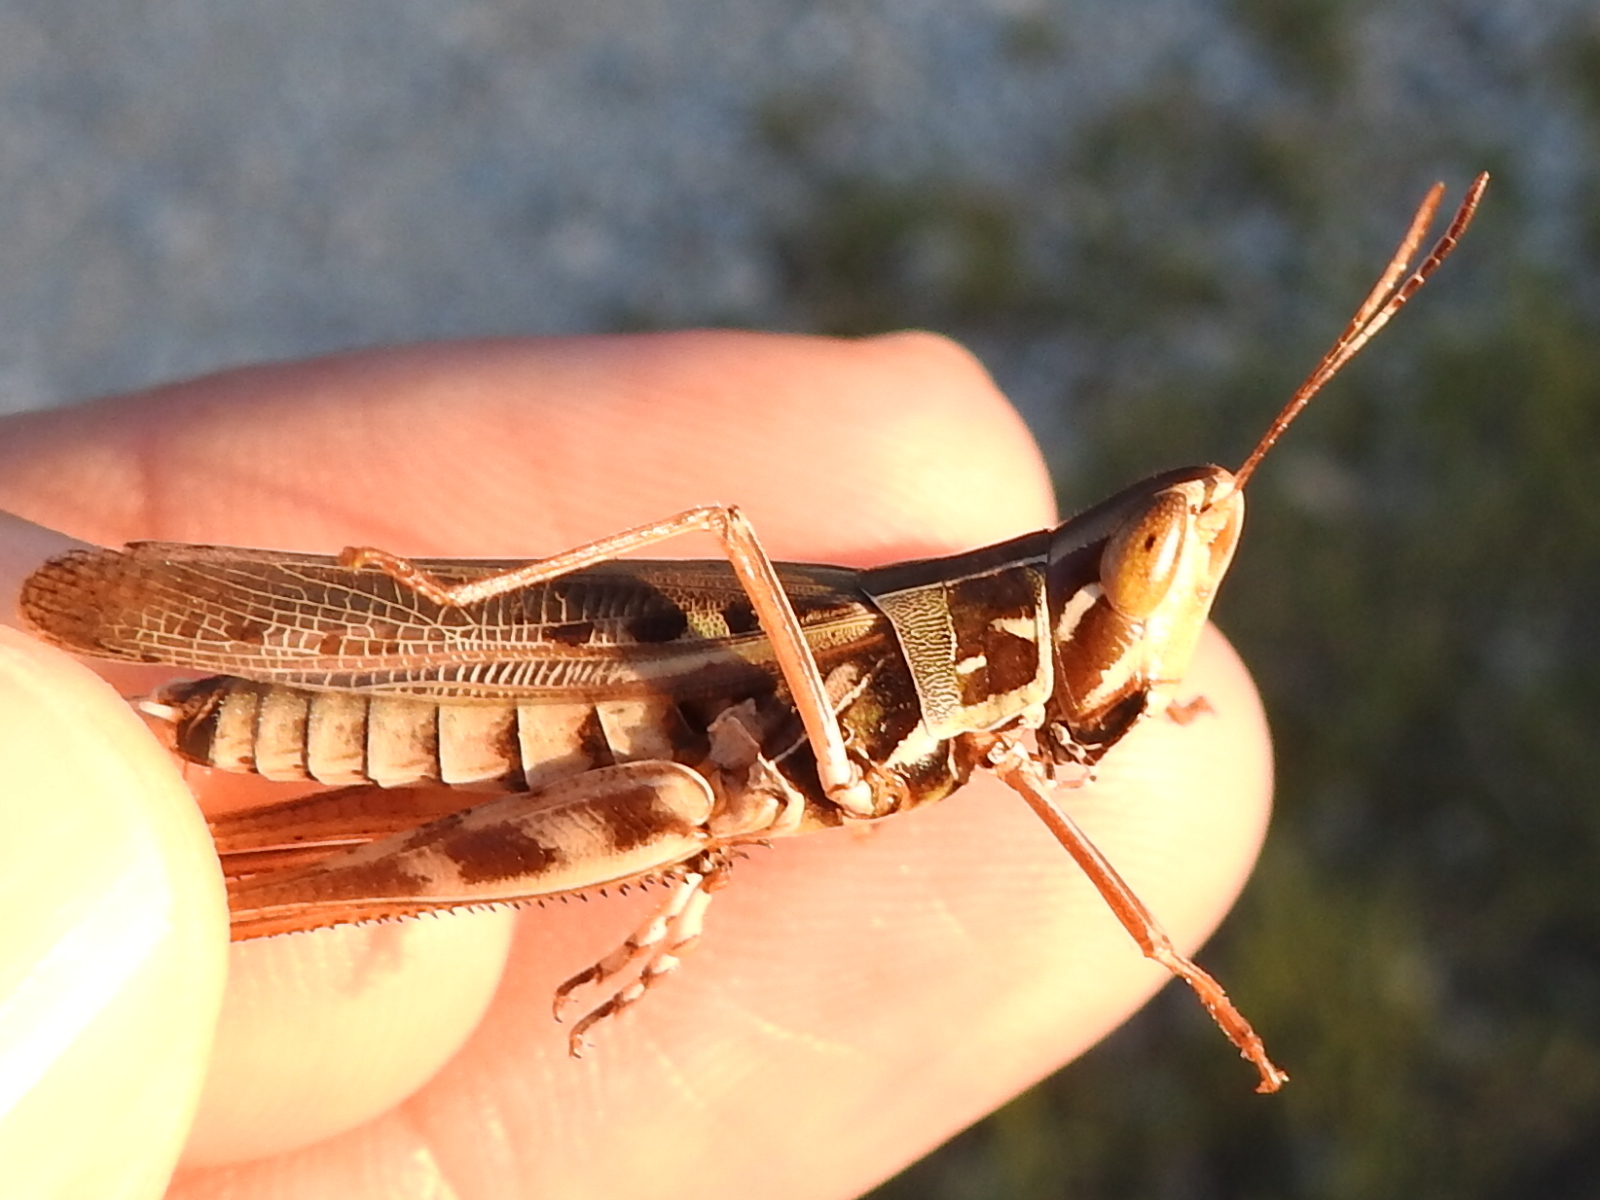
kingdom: Animalia
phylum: Arthropoda
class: Insecta
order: Orthoptera
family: Acrididae
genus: Syrbula
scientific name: Syrbula admirabilis
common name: Handsome grasshopper
